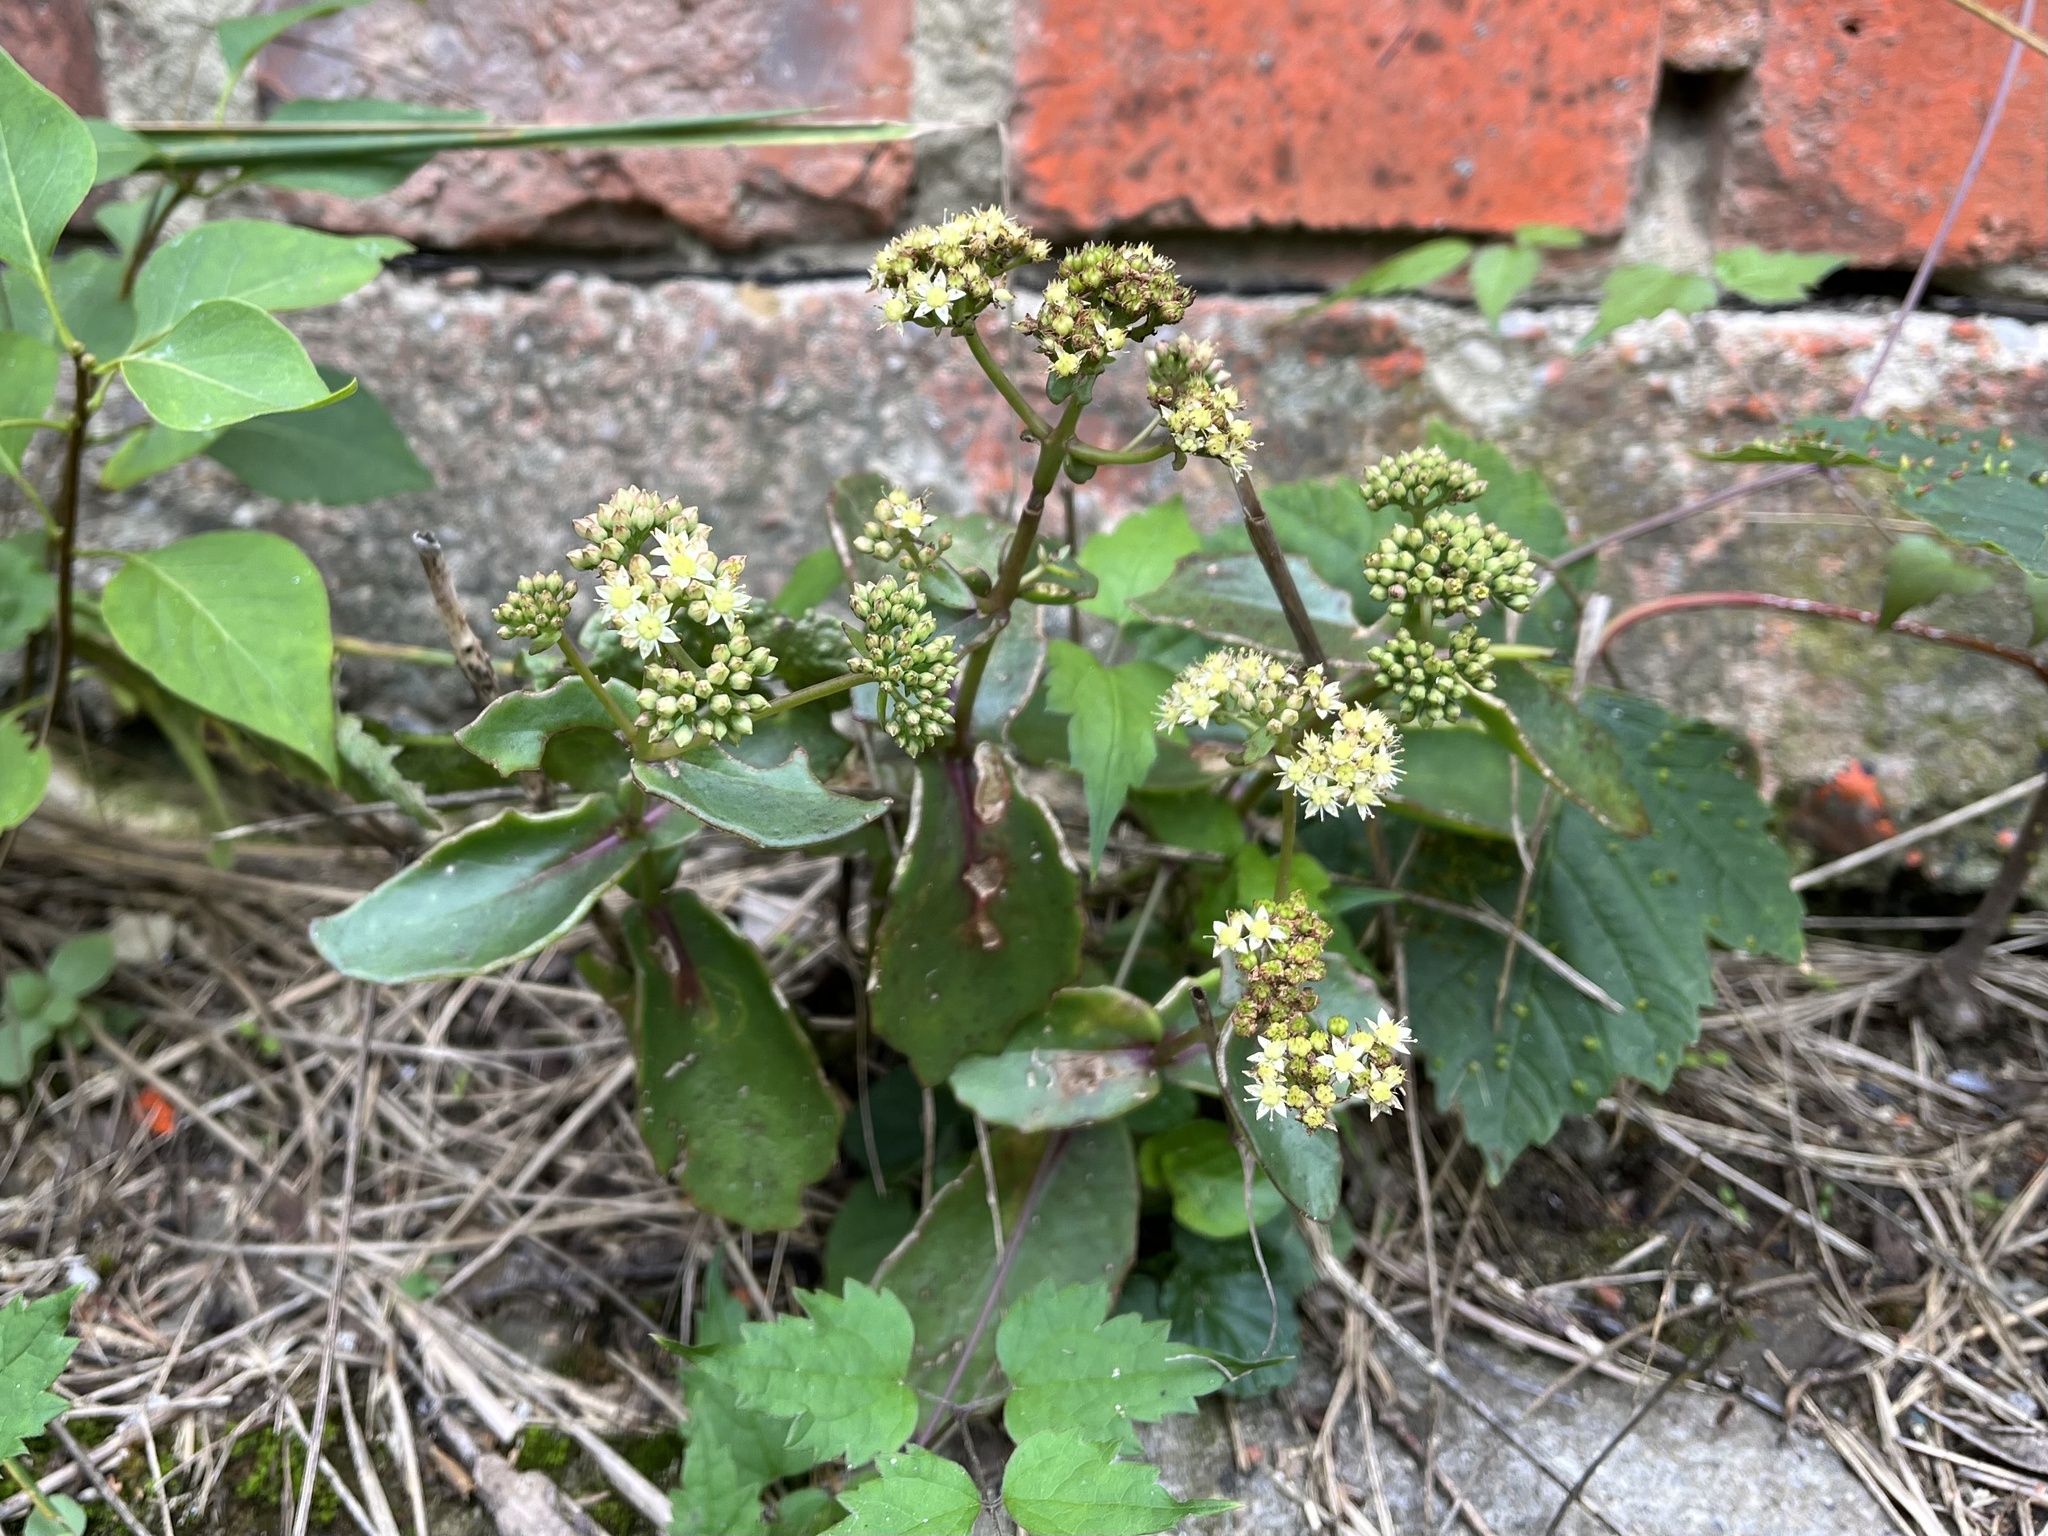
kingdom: Plantae
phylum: Tracheophyta
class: Magnoliopsida
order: Saxifragales
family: Crassulaceae
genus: Hylotelephium
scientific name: Hylotelephium maximum
